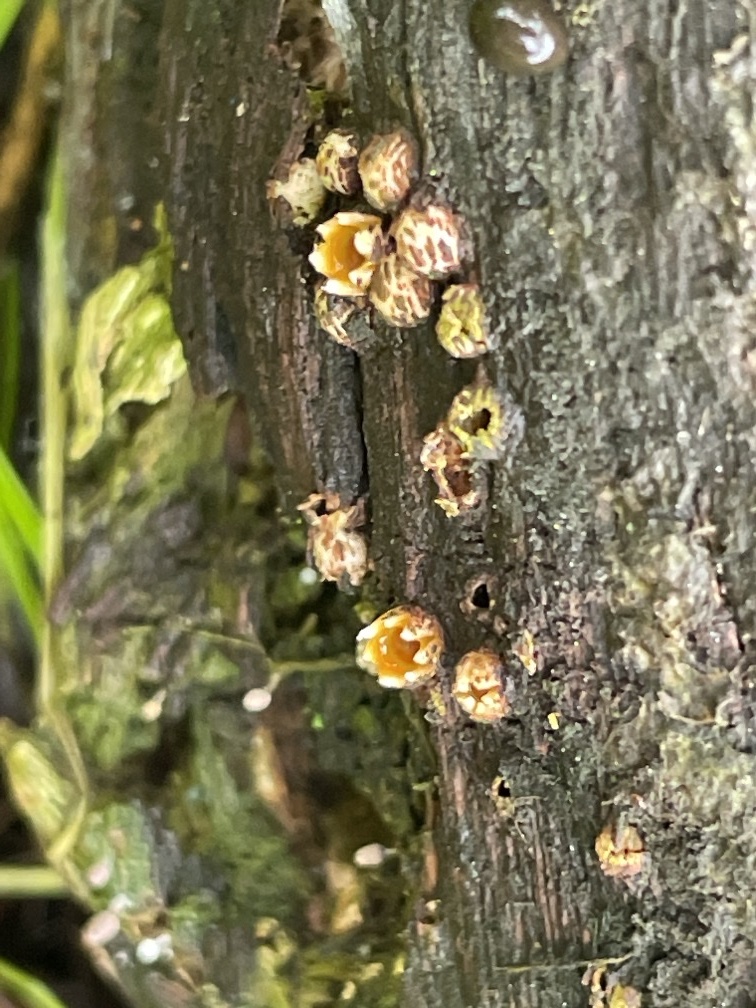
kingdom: Fungi
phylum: Basidiomycota
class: Agaricomycetes
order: Geastrales
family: Geastraceae
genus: Sphaerobolus
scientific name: Sphaerobolus stellatus
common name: Cannon fungus
